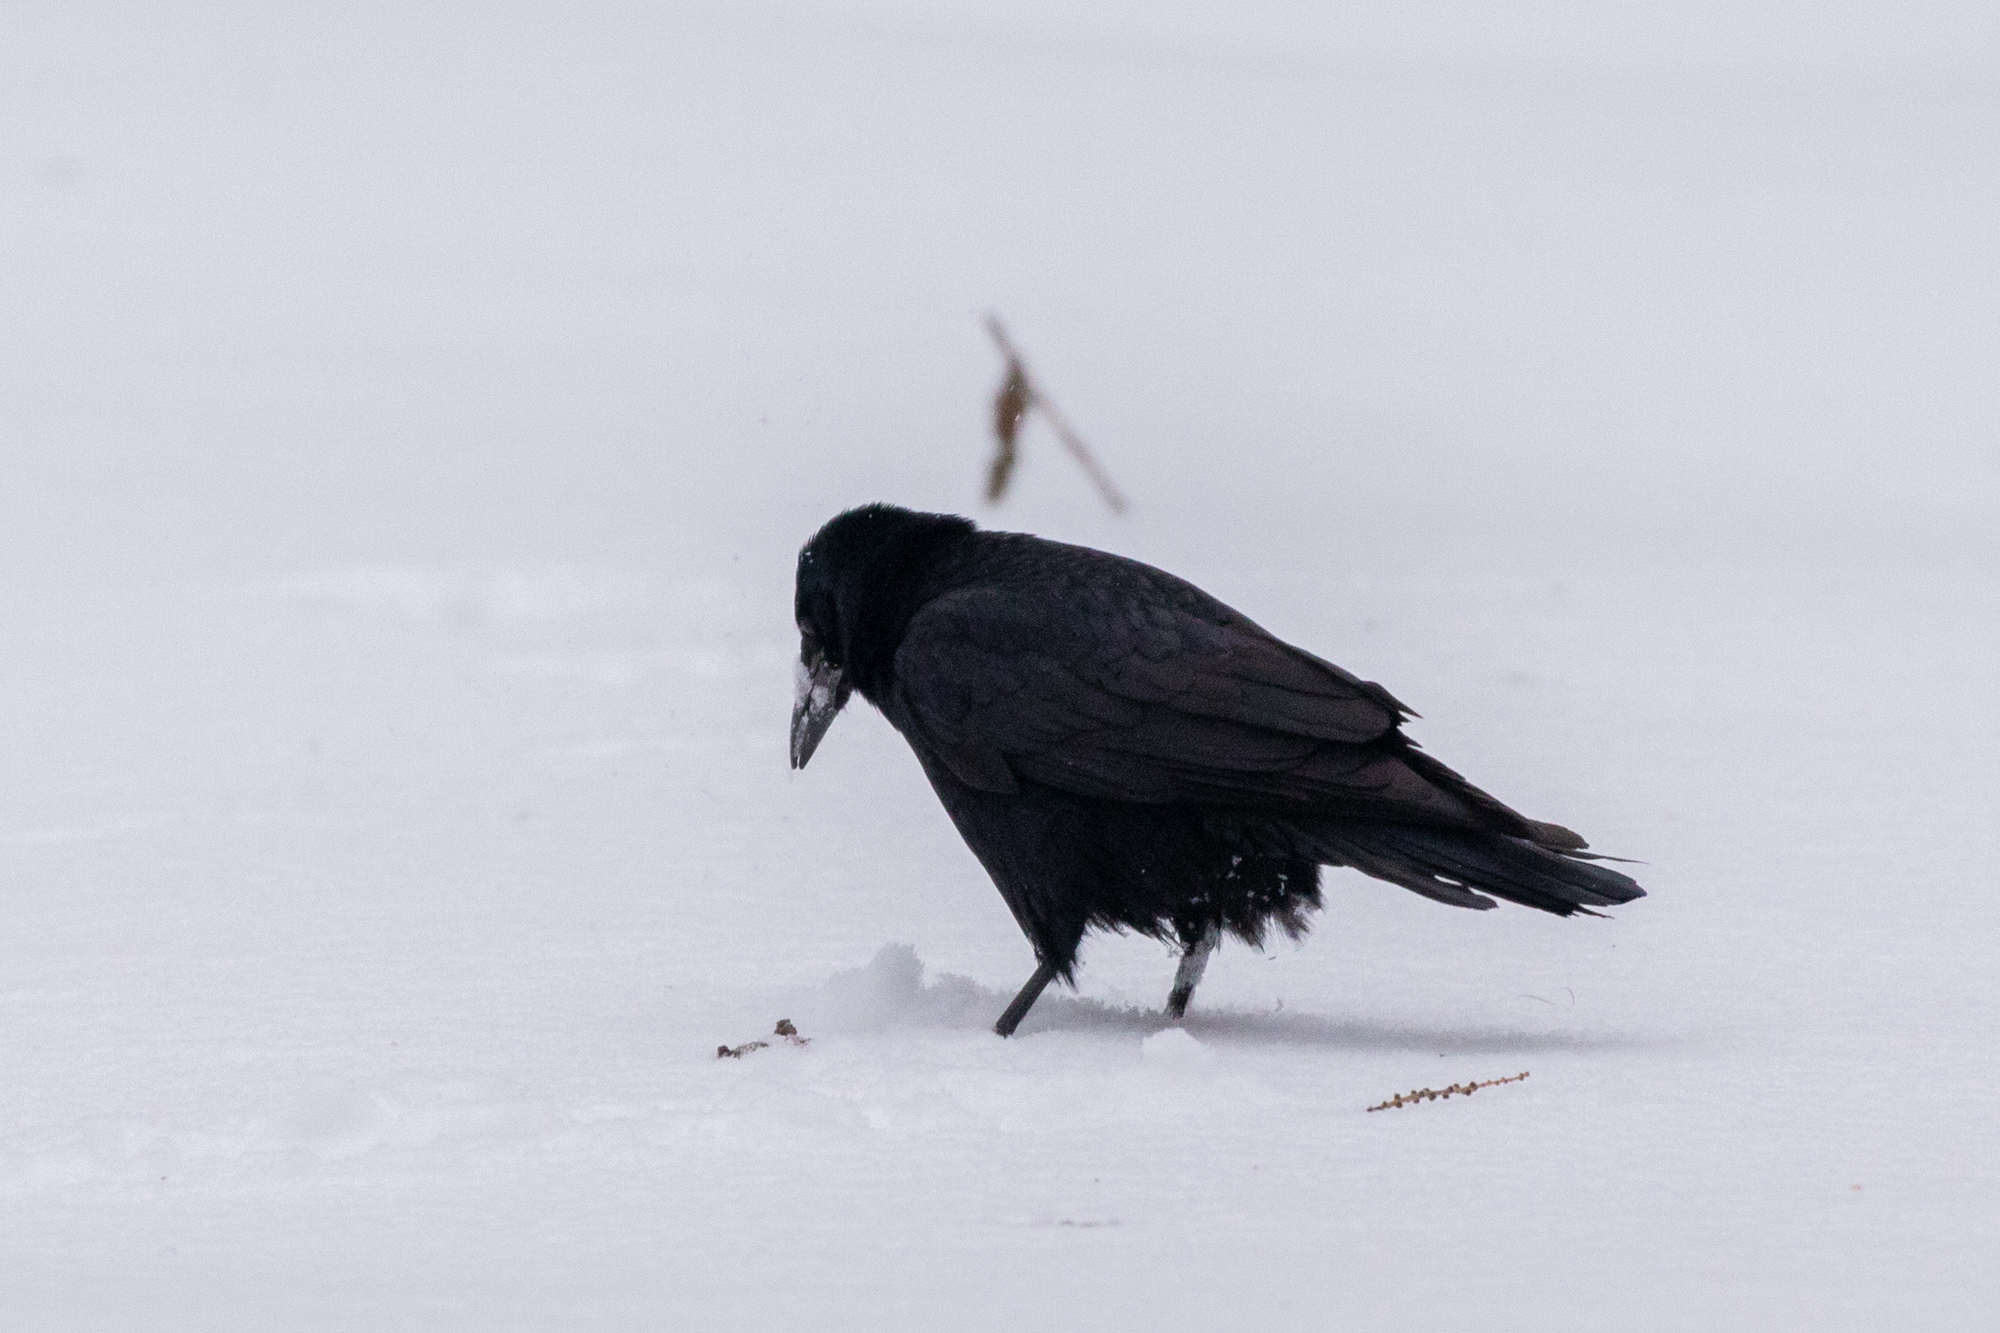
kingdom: Animalia
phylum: Chordata
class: Aves
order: Passeriformes
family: Corvidae
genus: Corvus
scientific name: Corvus frugilegus
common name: Rook
